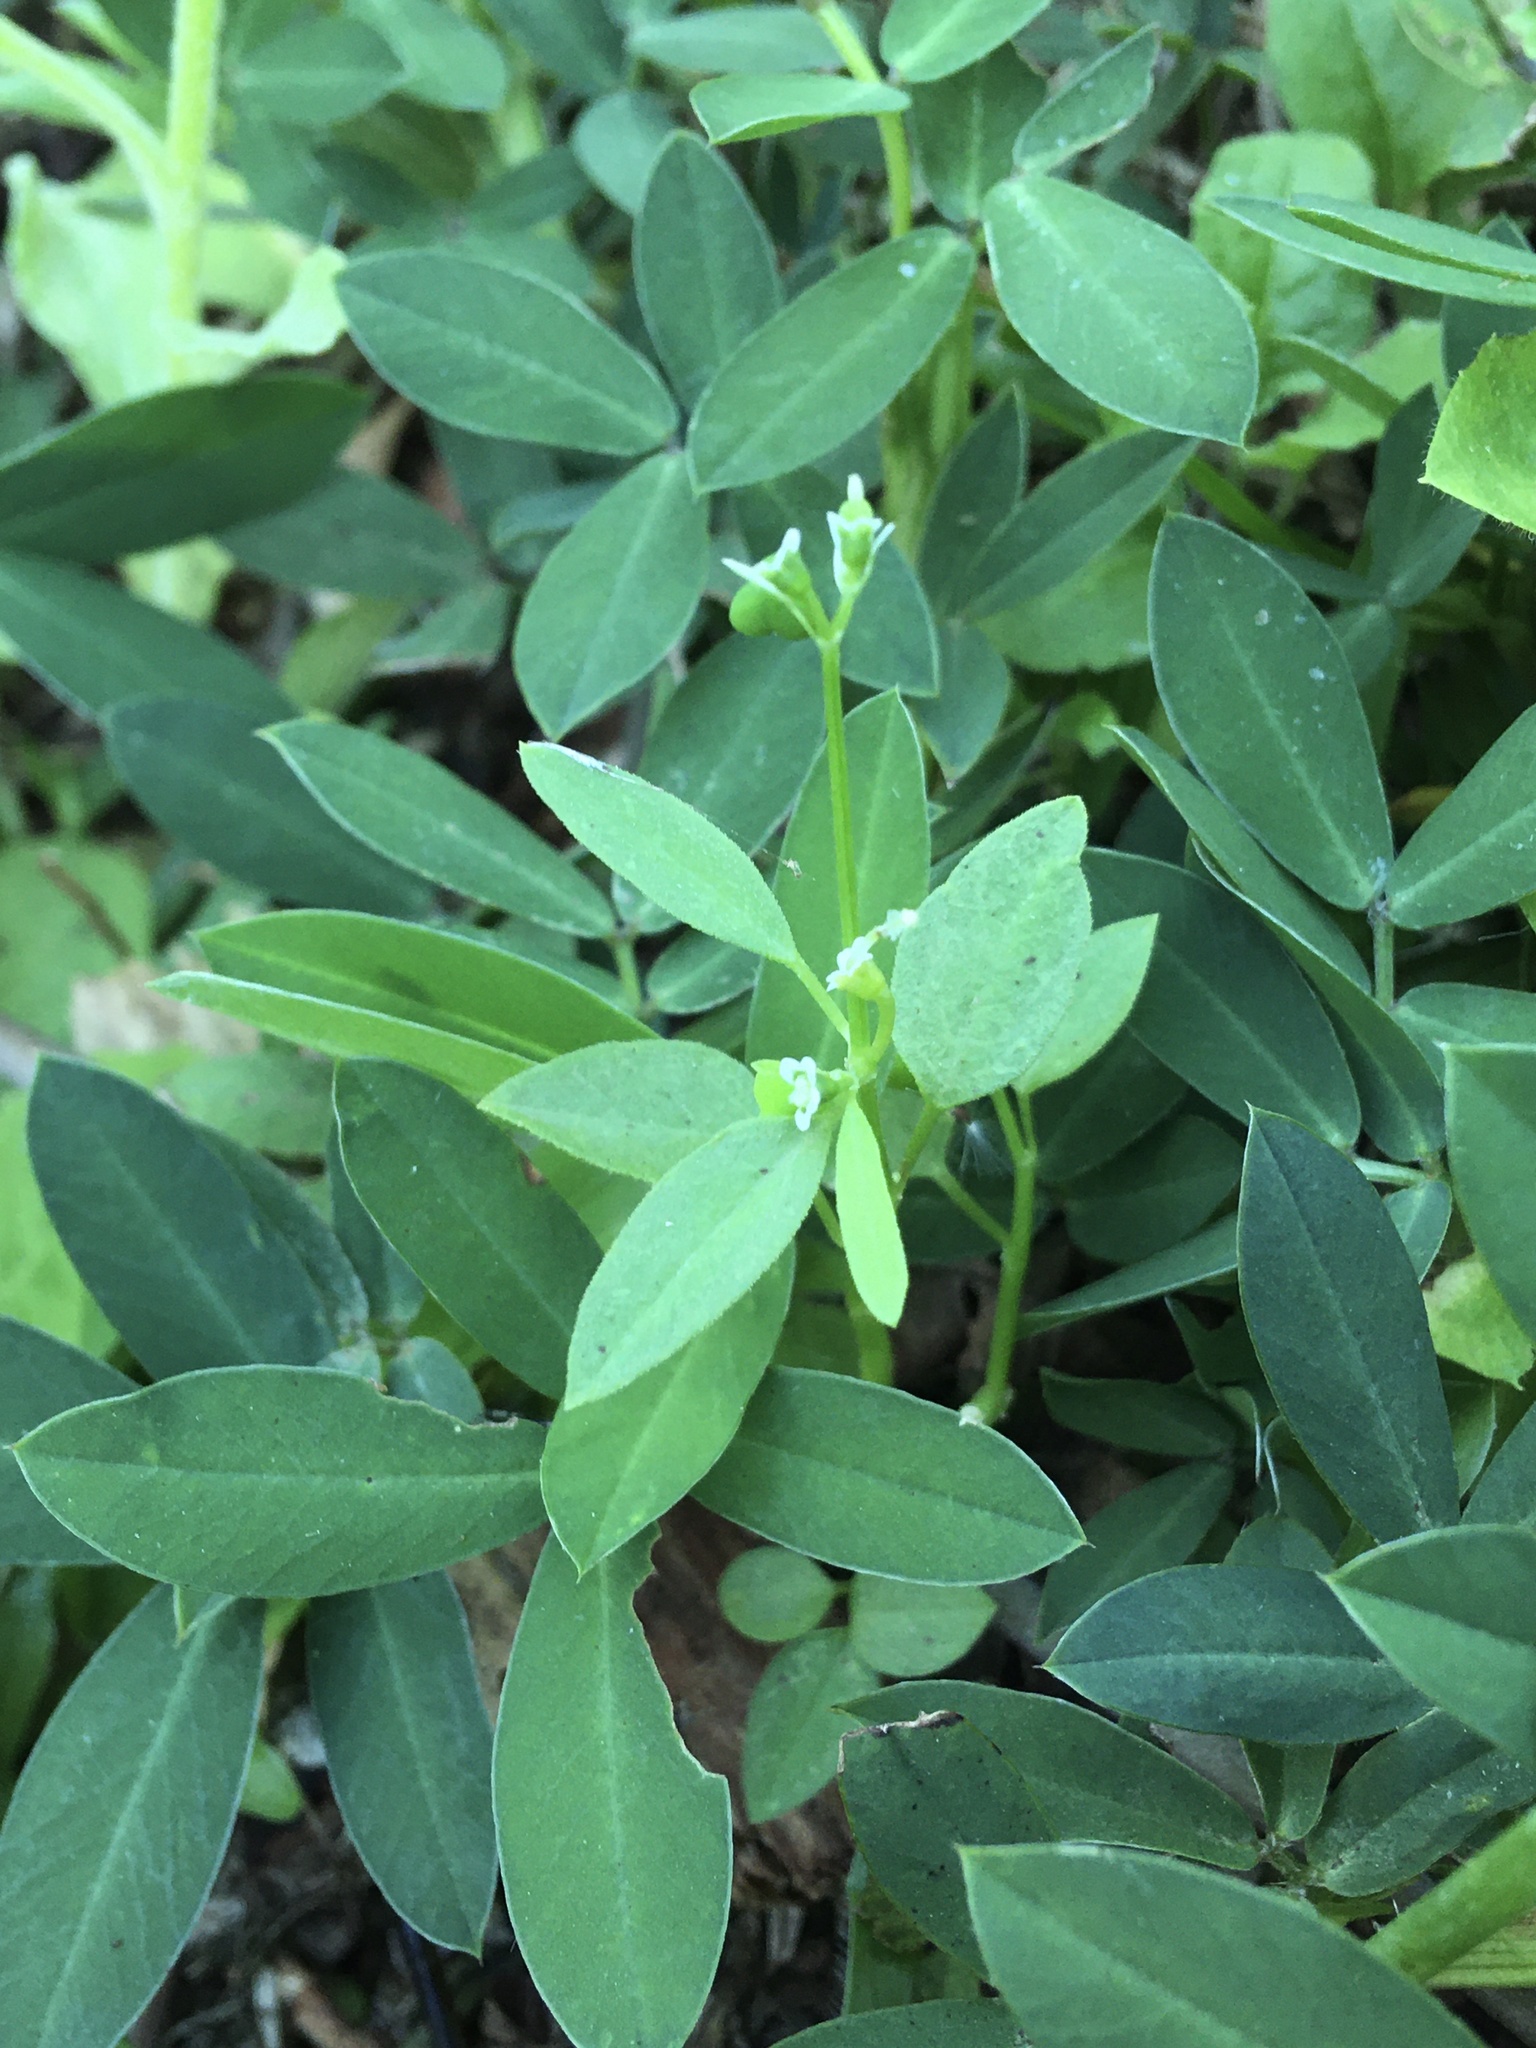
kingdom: Plantae
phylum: Tracheophyta
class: Magnoliopsida
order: Malpighiales
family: Euphorbiaceae
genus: Euphorbia
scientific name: Euphorbia graminea
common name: Grassleaf spurge
